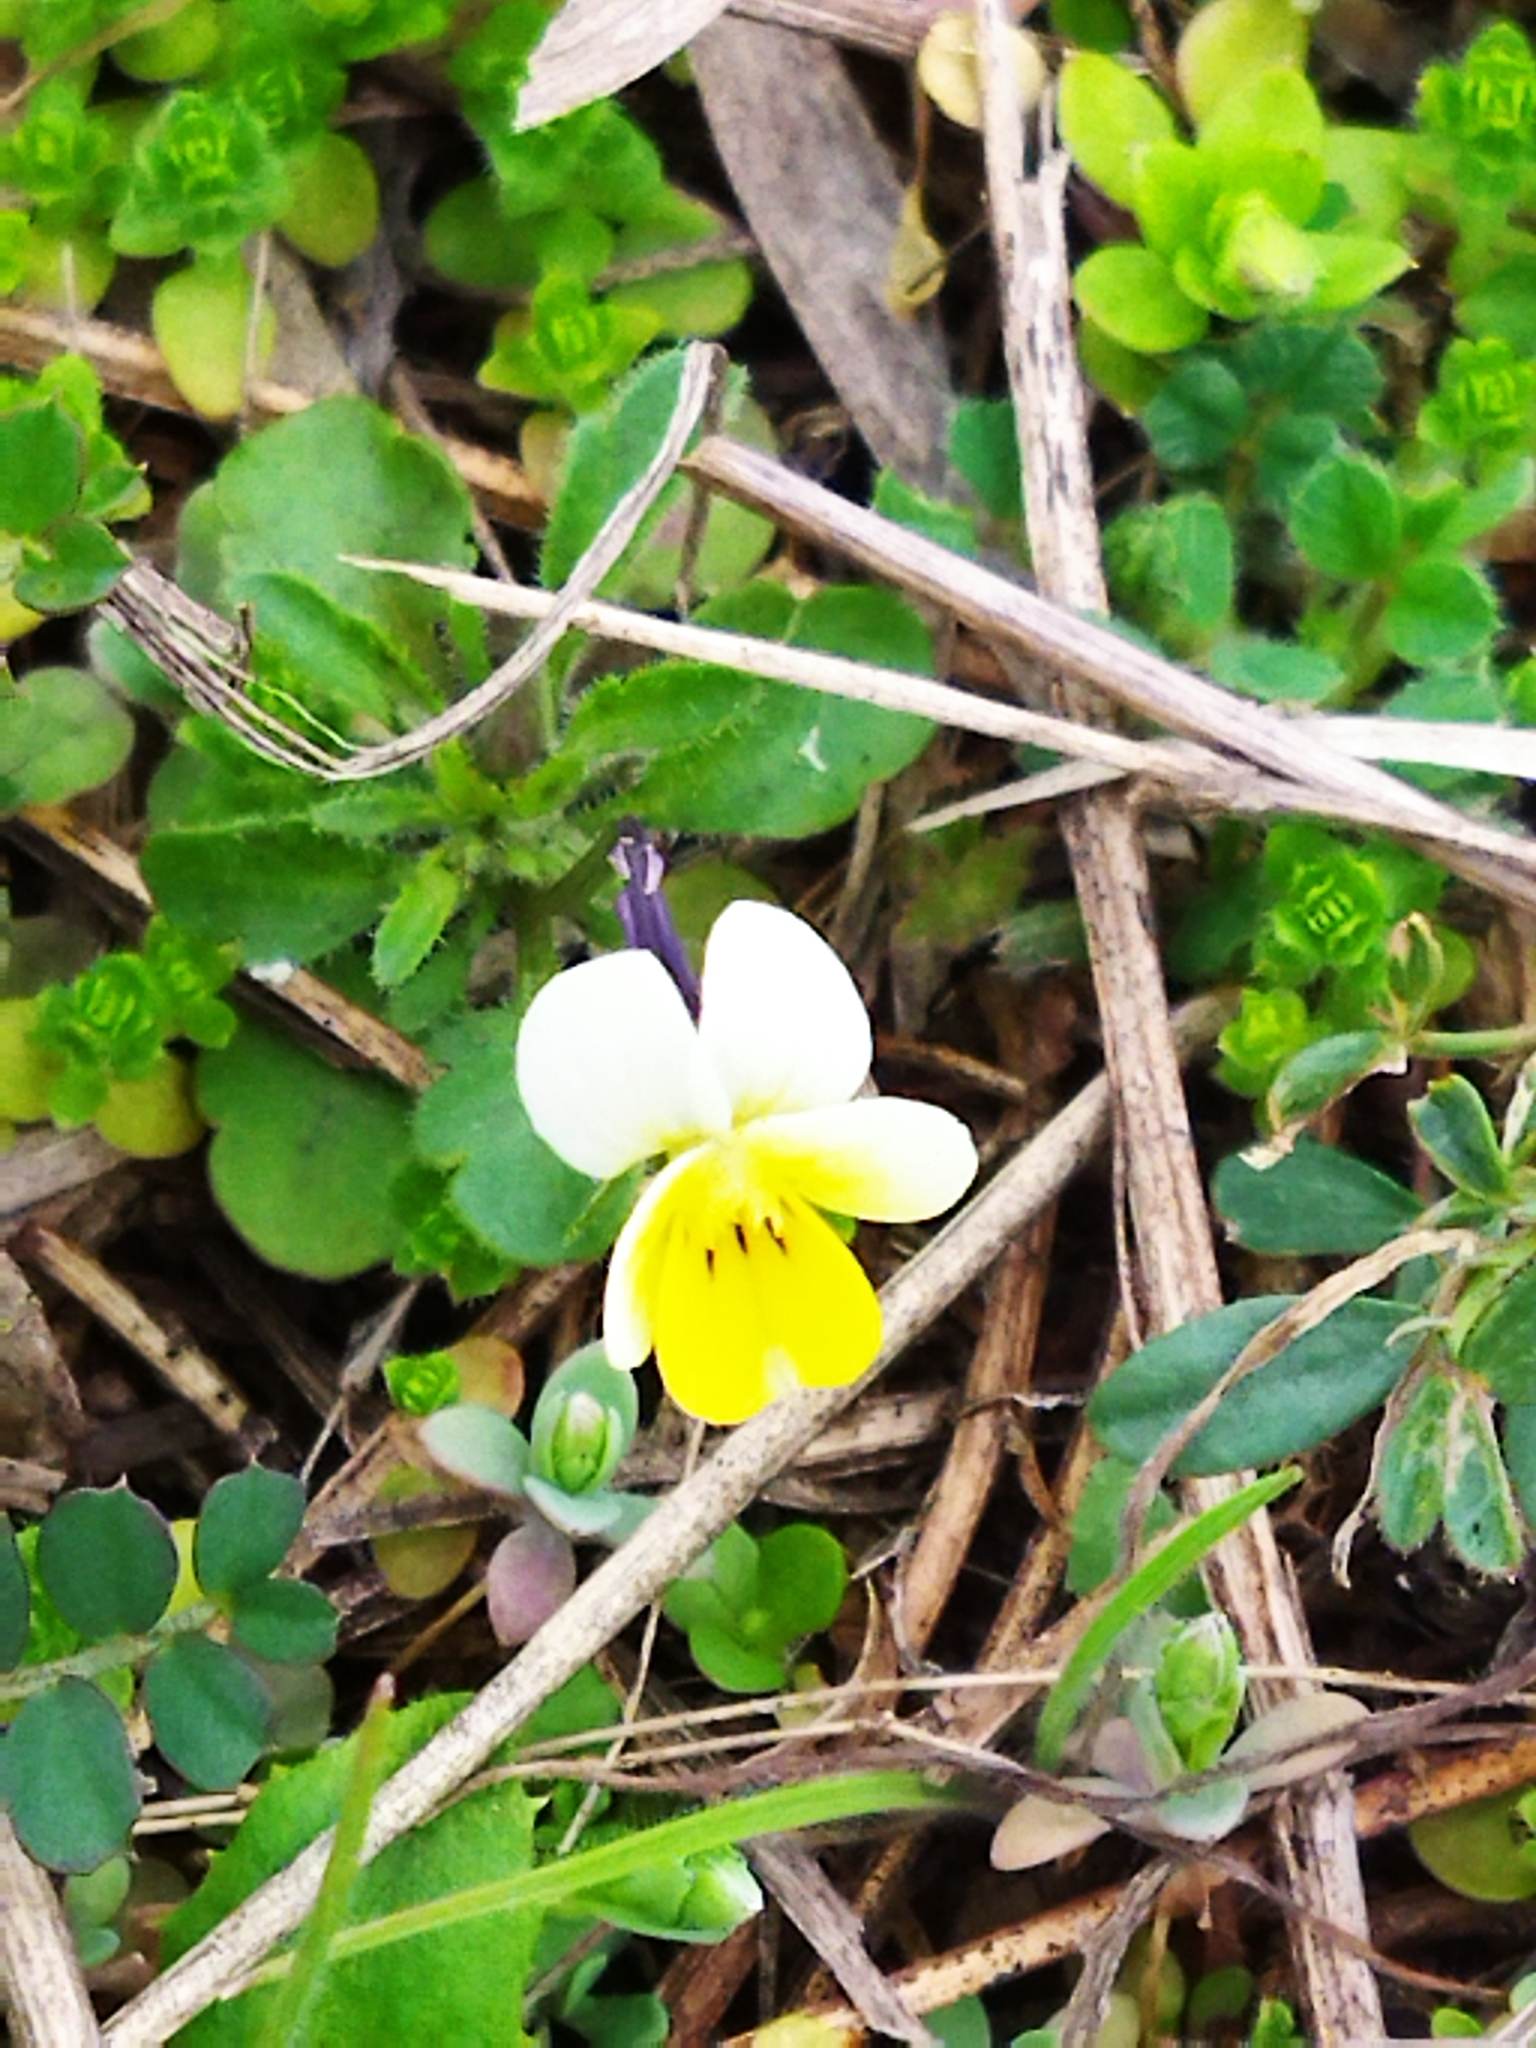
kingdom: Plantae
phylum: Tracheophyta
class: Magnoliopsida
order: Malpighiales
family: Violaceae
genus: Viola
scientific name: Viola arvensis
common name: Field pansy
